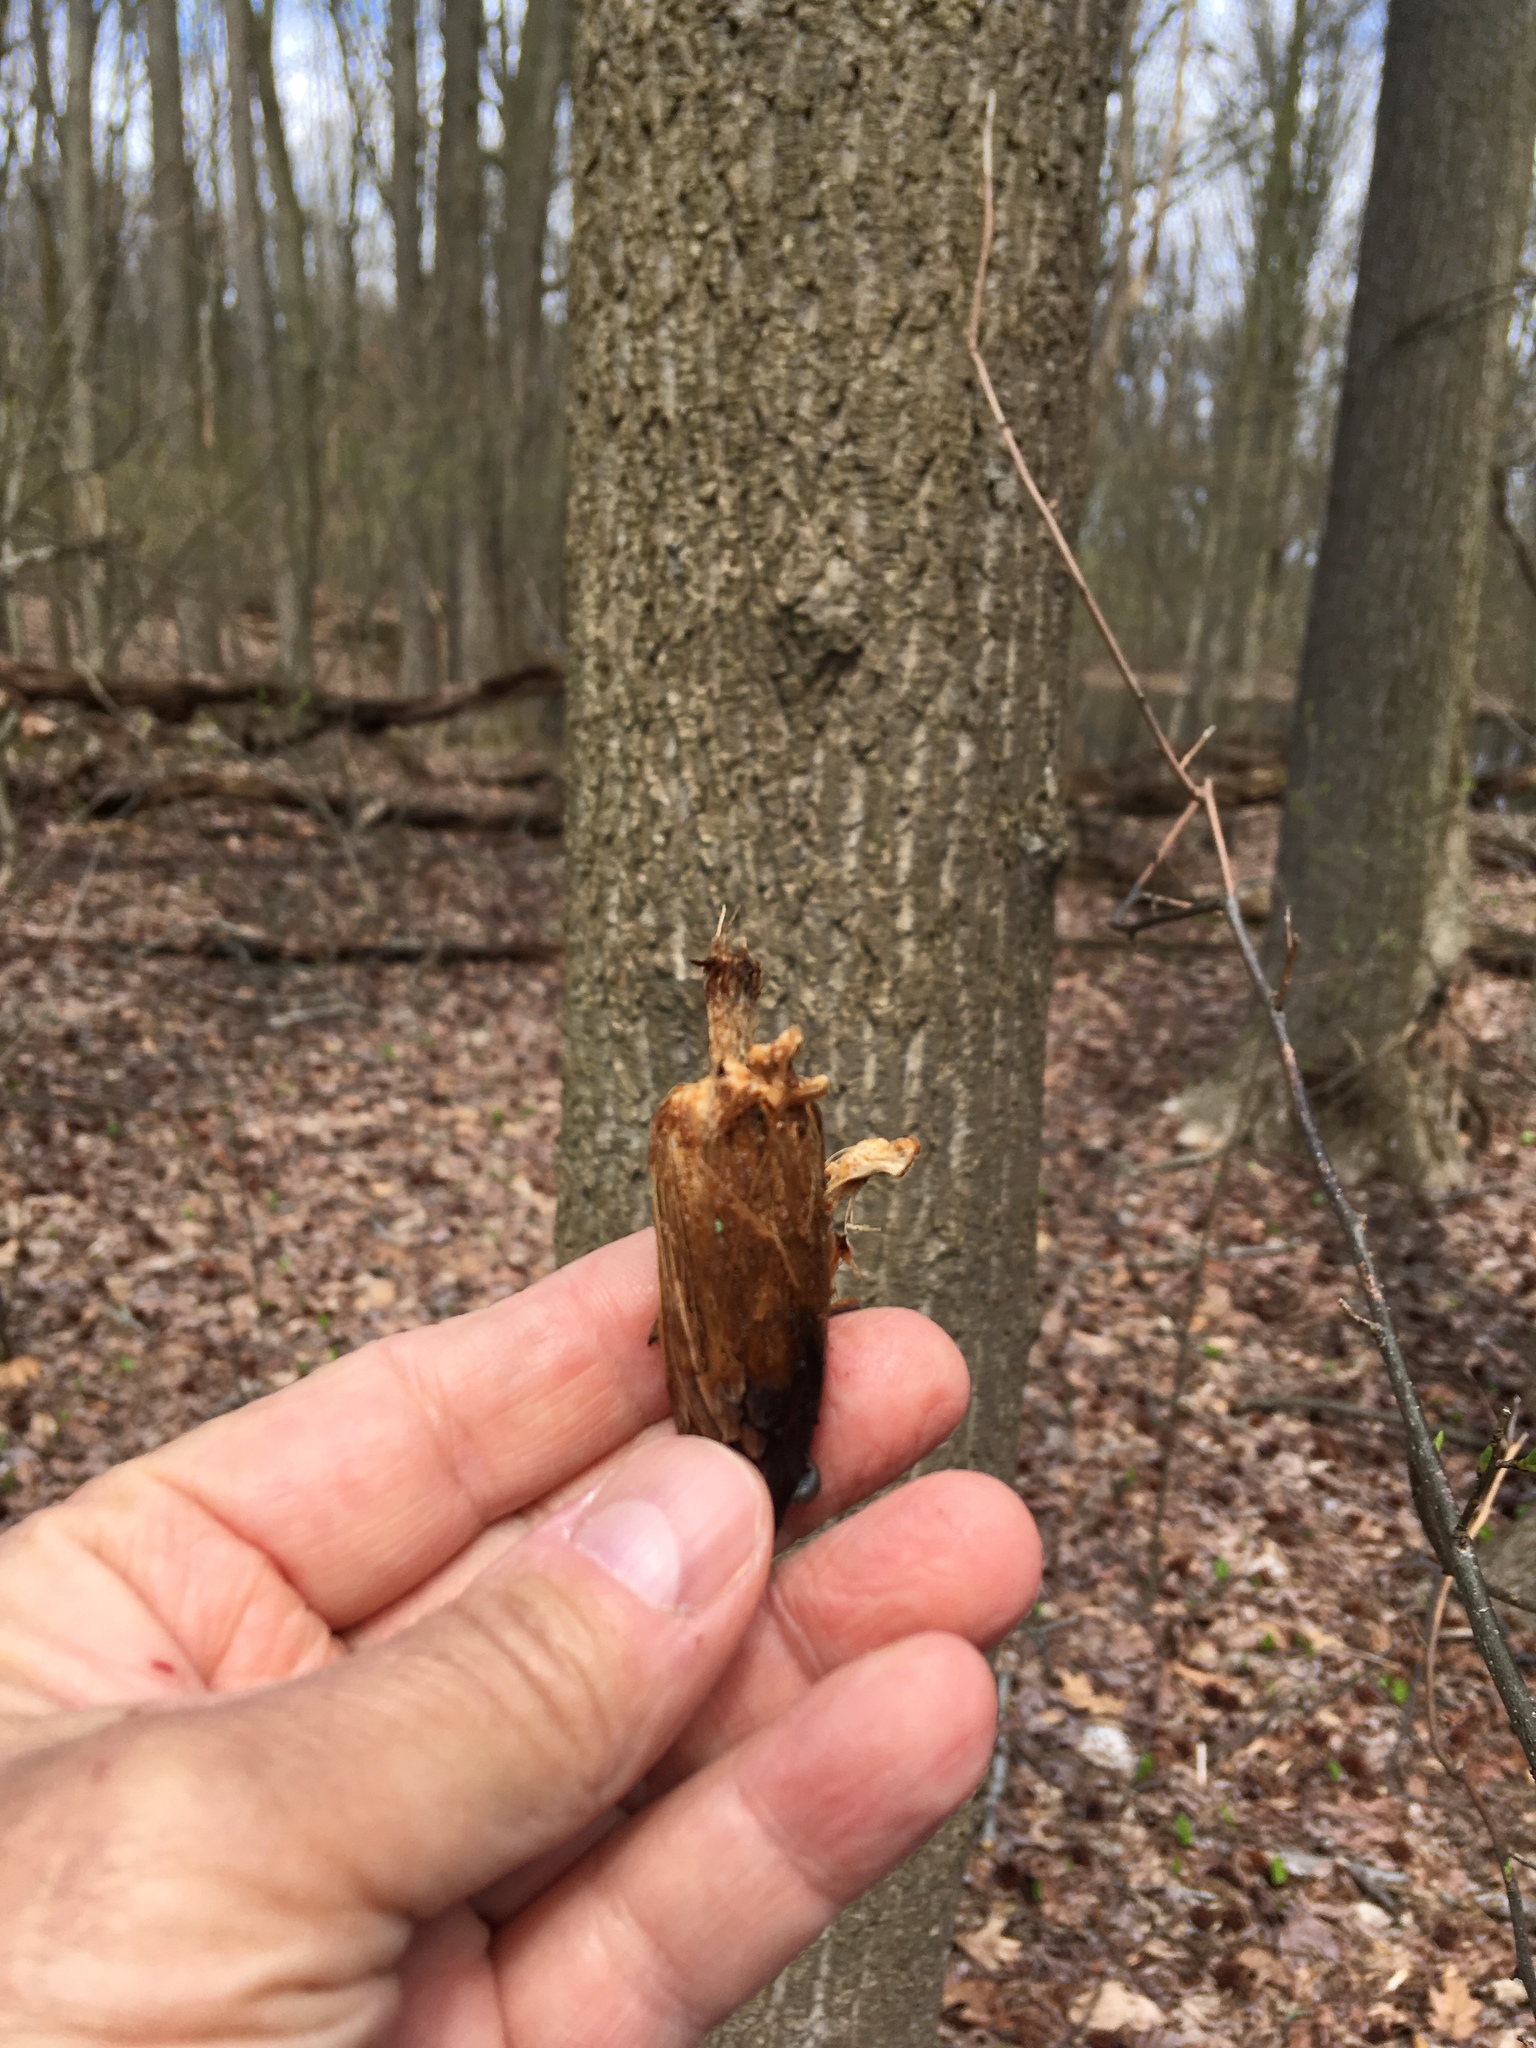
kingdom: Plantae
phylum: Tracheophyta
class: Magnoliopsida
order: Magnoliales
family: Magnoliaceae
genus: Liriodendron
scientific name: Liriodendron tulipifera
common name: Tulip tree
